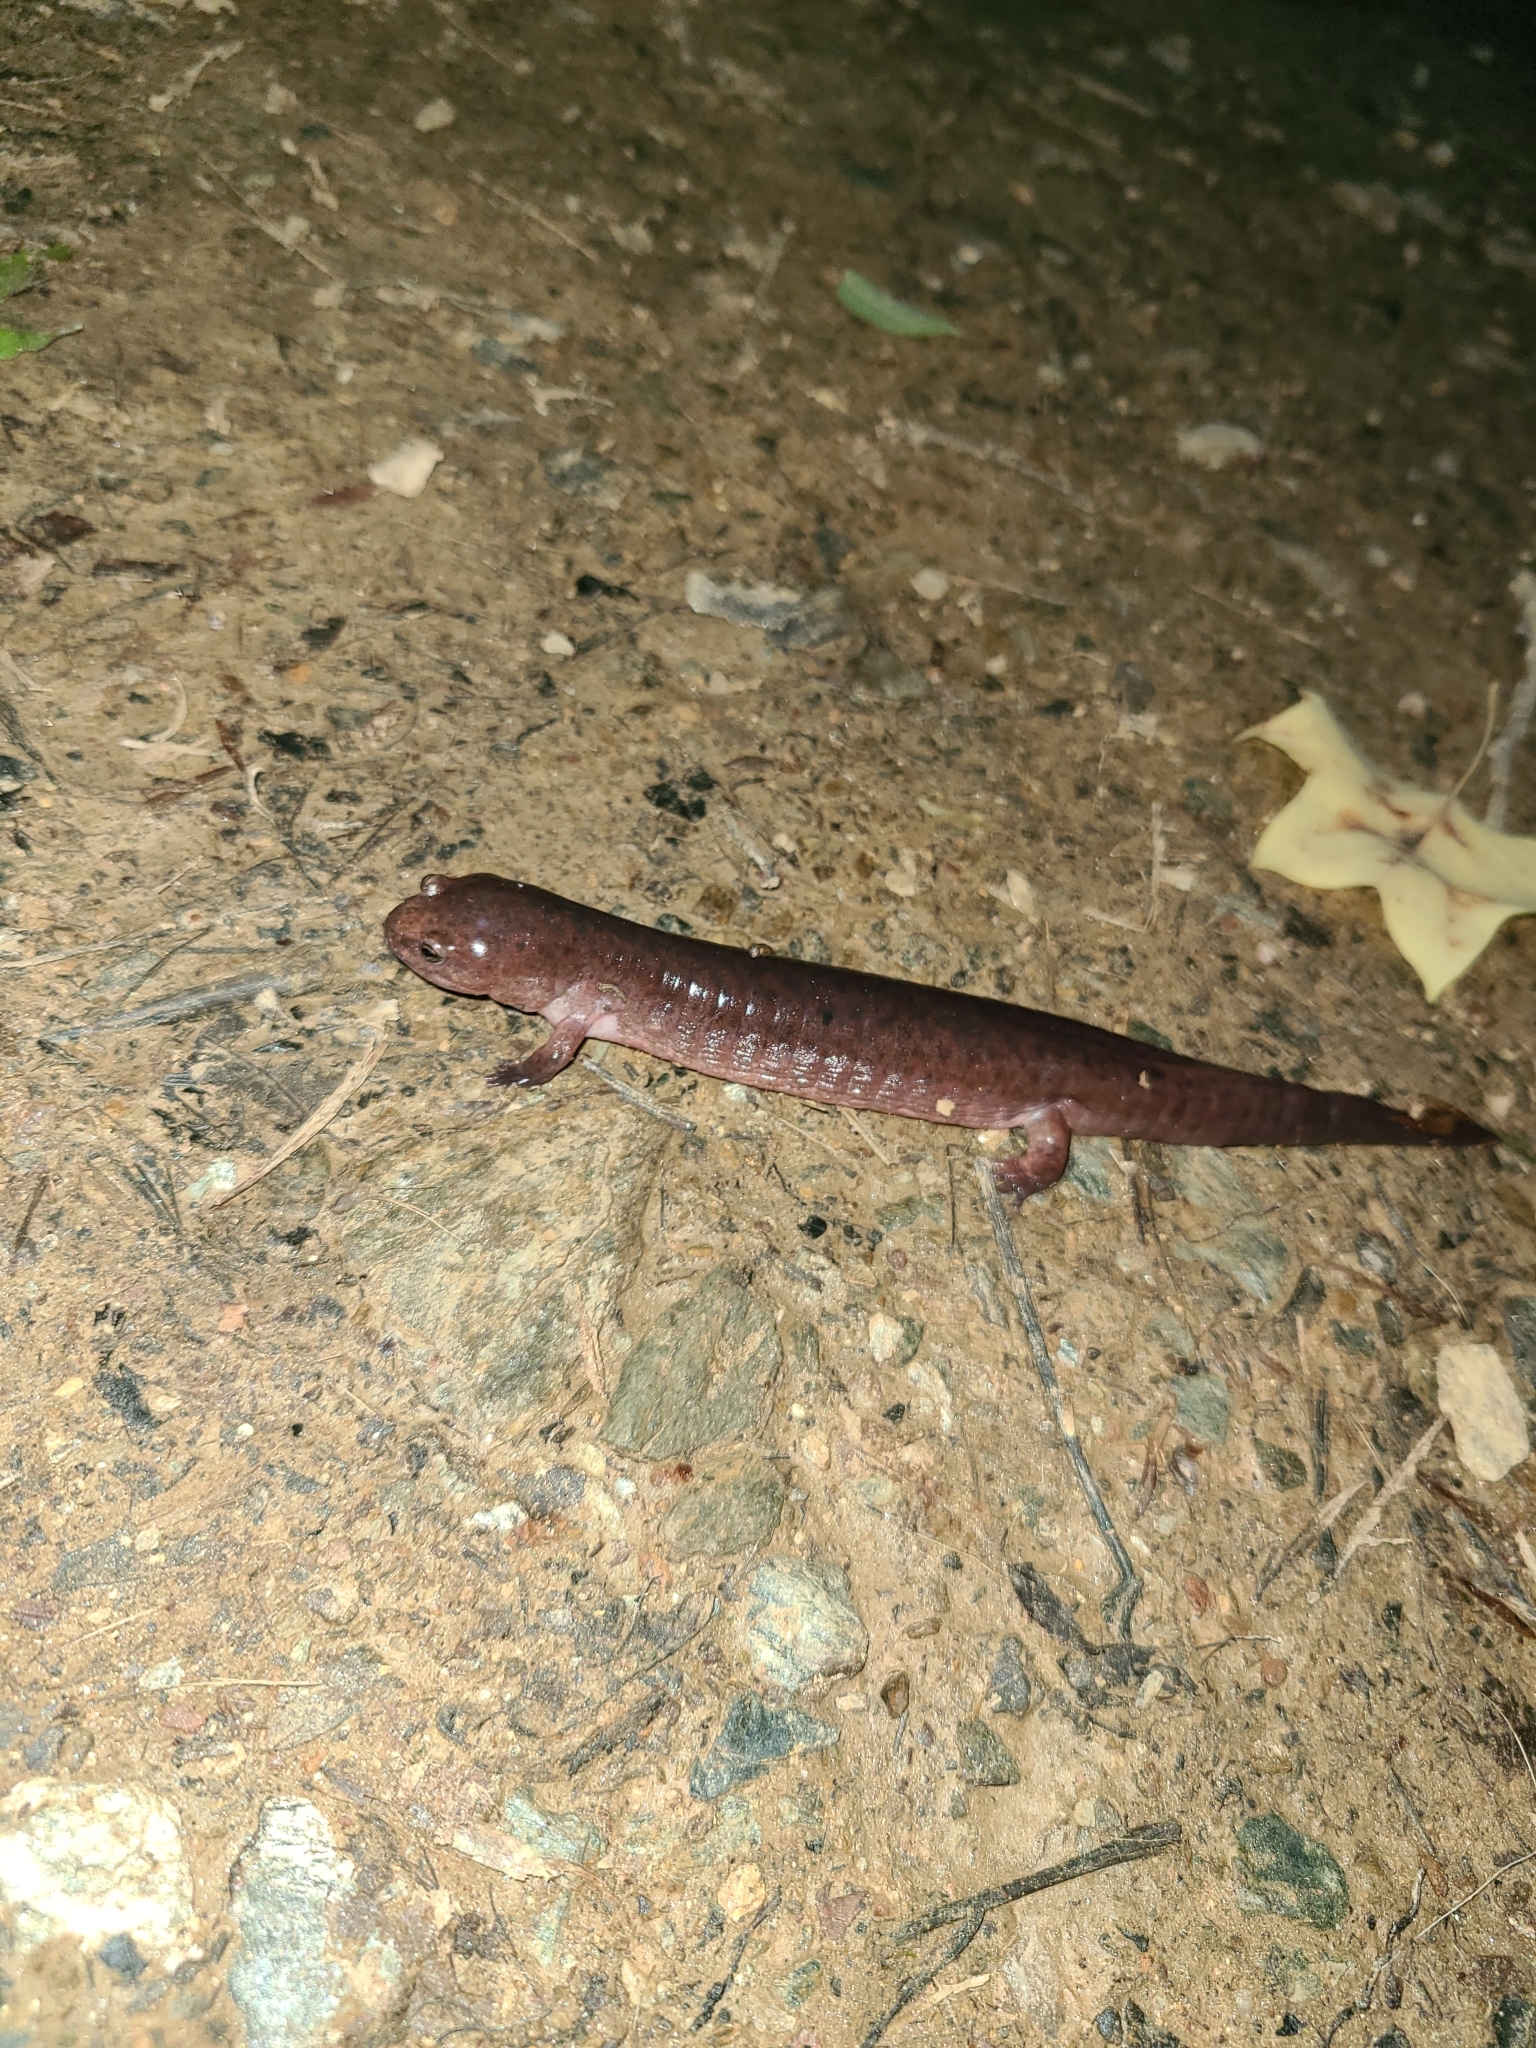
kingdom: Animalia
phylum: Chordata
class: Amphibia
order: Caudata
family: Plethodontidae
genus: Pseudotriton
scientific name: Pseudotriton ruber
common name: Red salamander
